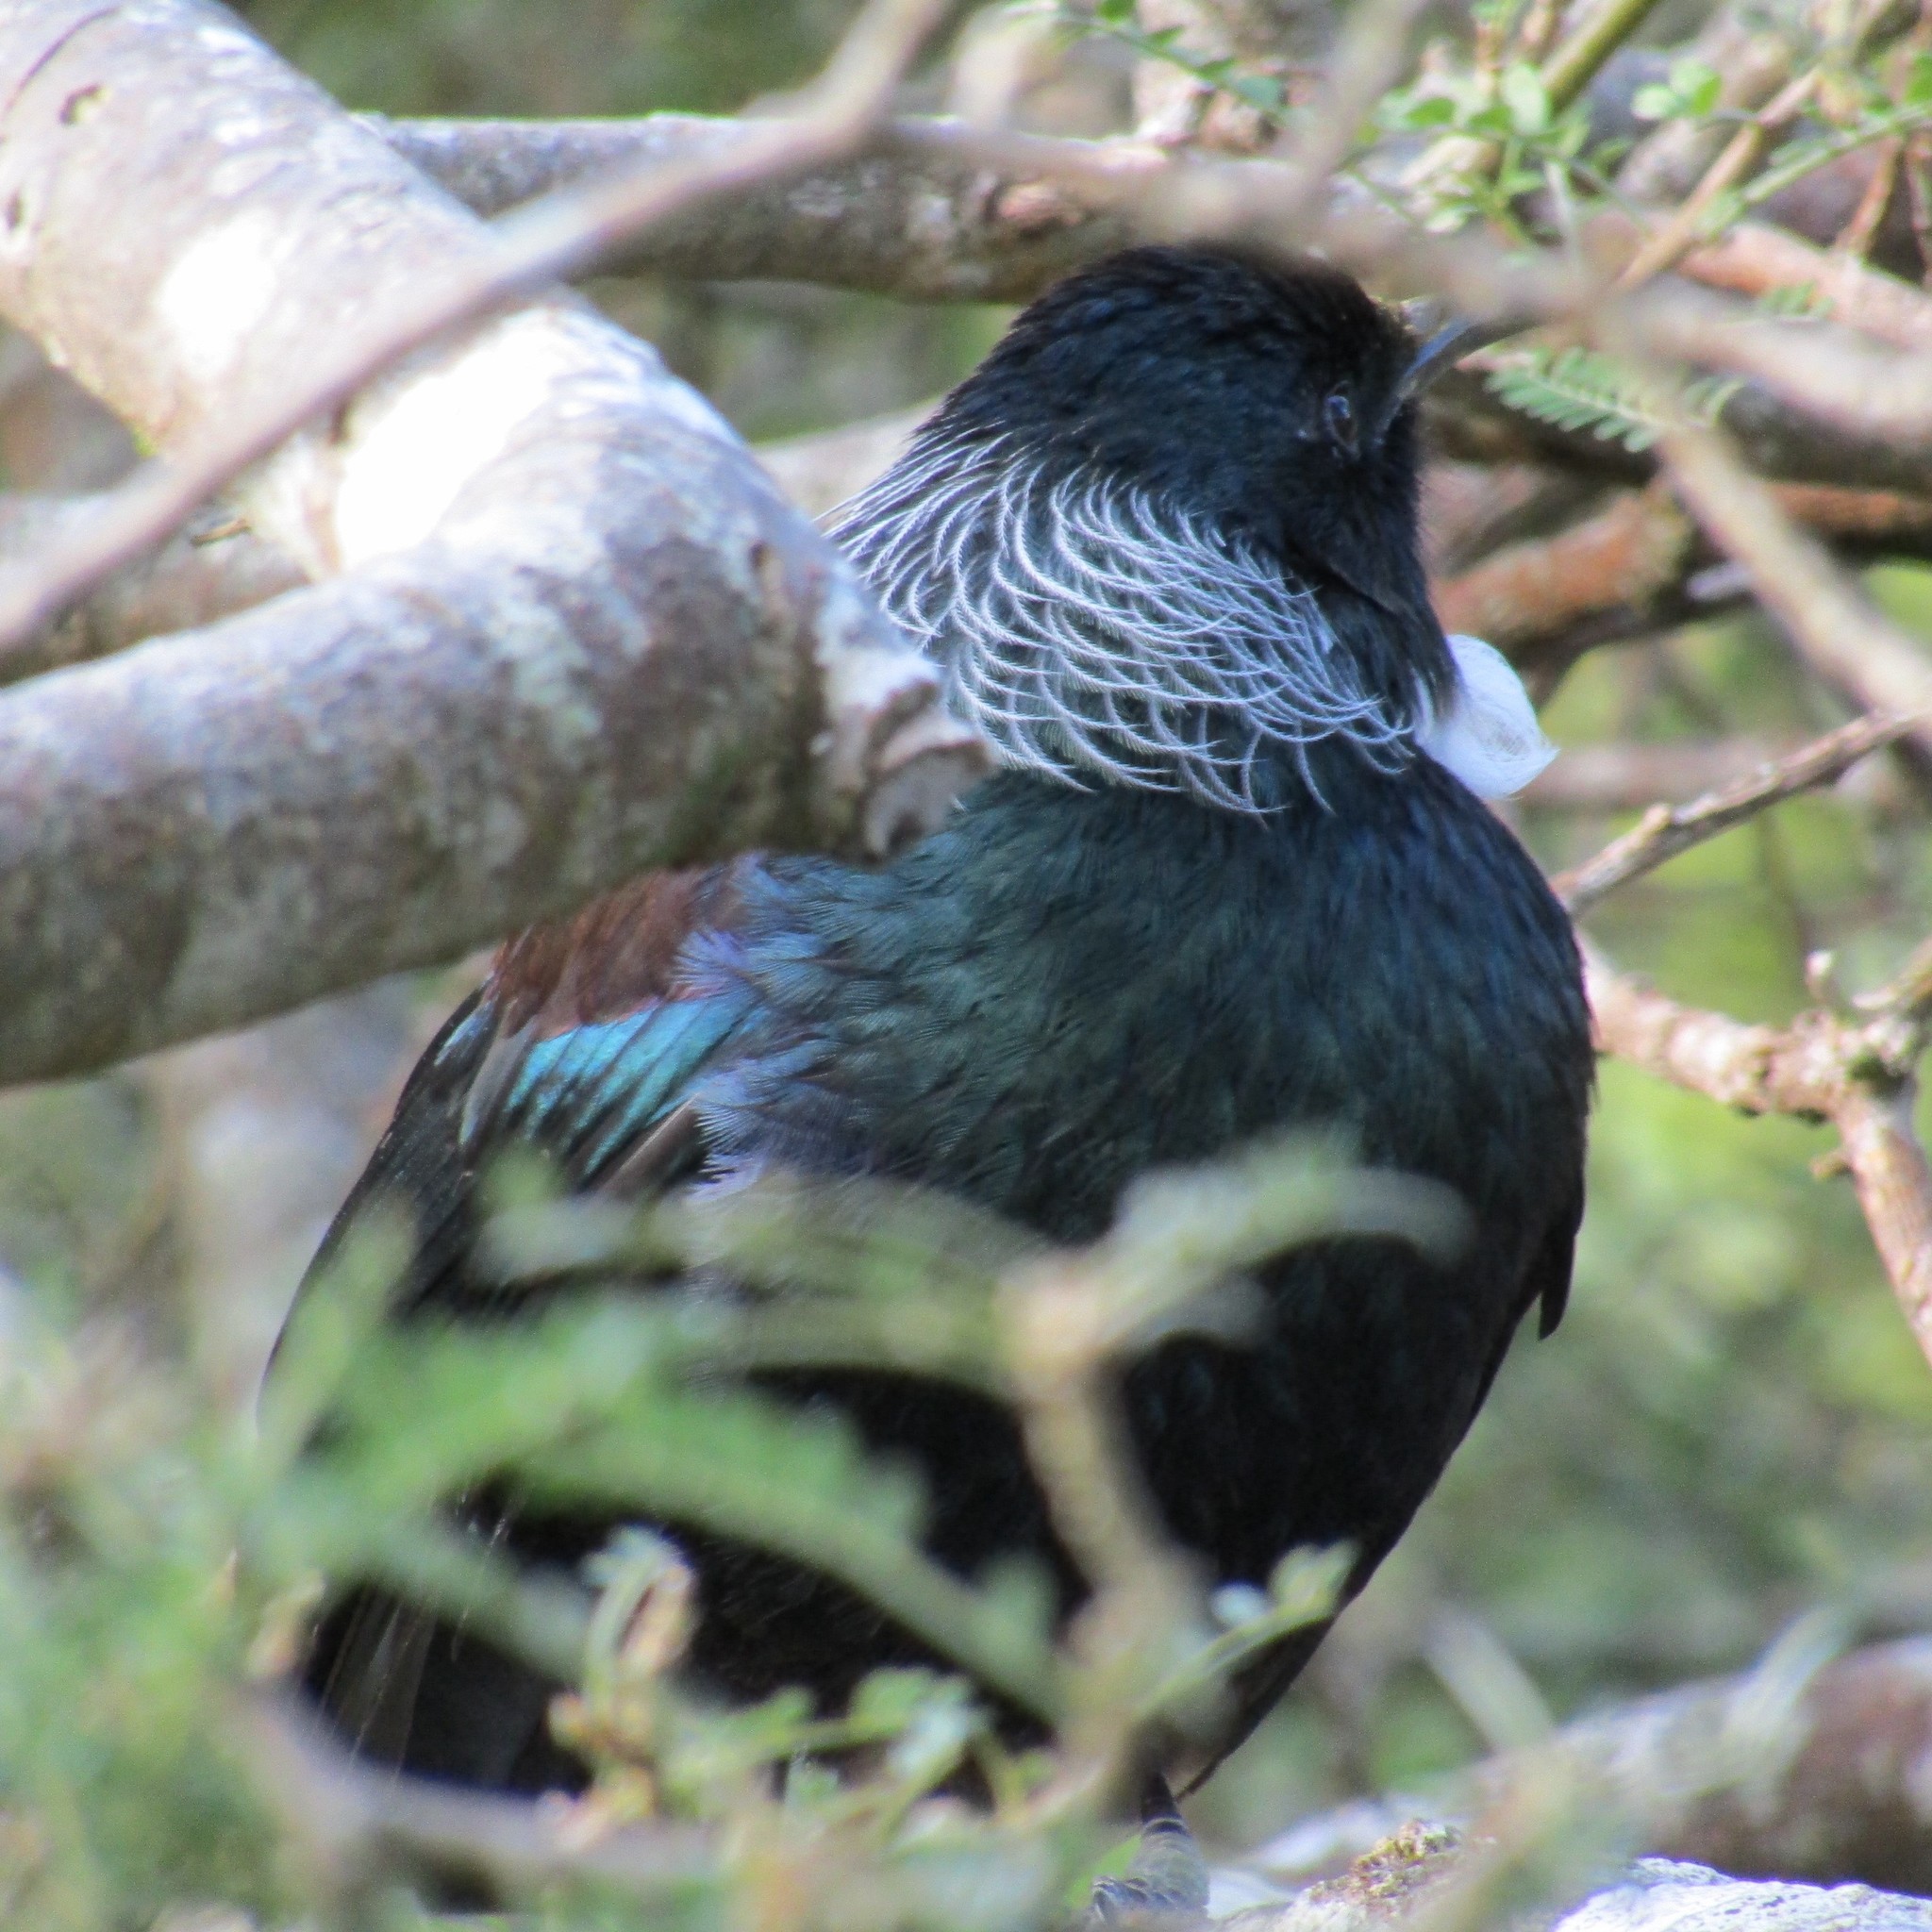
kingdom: Animalia
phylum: Chordata
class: Aves
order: Passeriformes
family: Meliphagidae
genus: Prosthemadera
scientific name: Prosthemadera novaeseelandiae
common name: Tui
